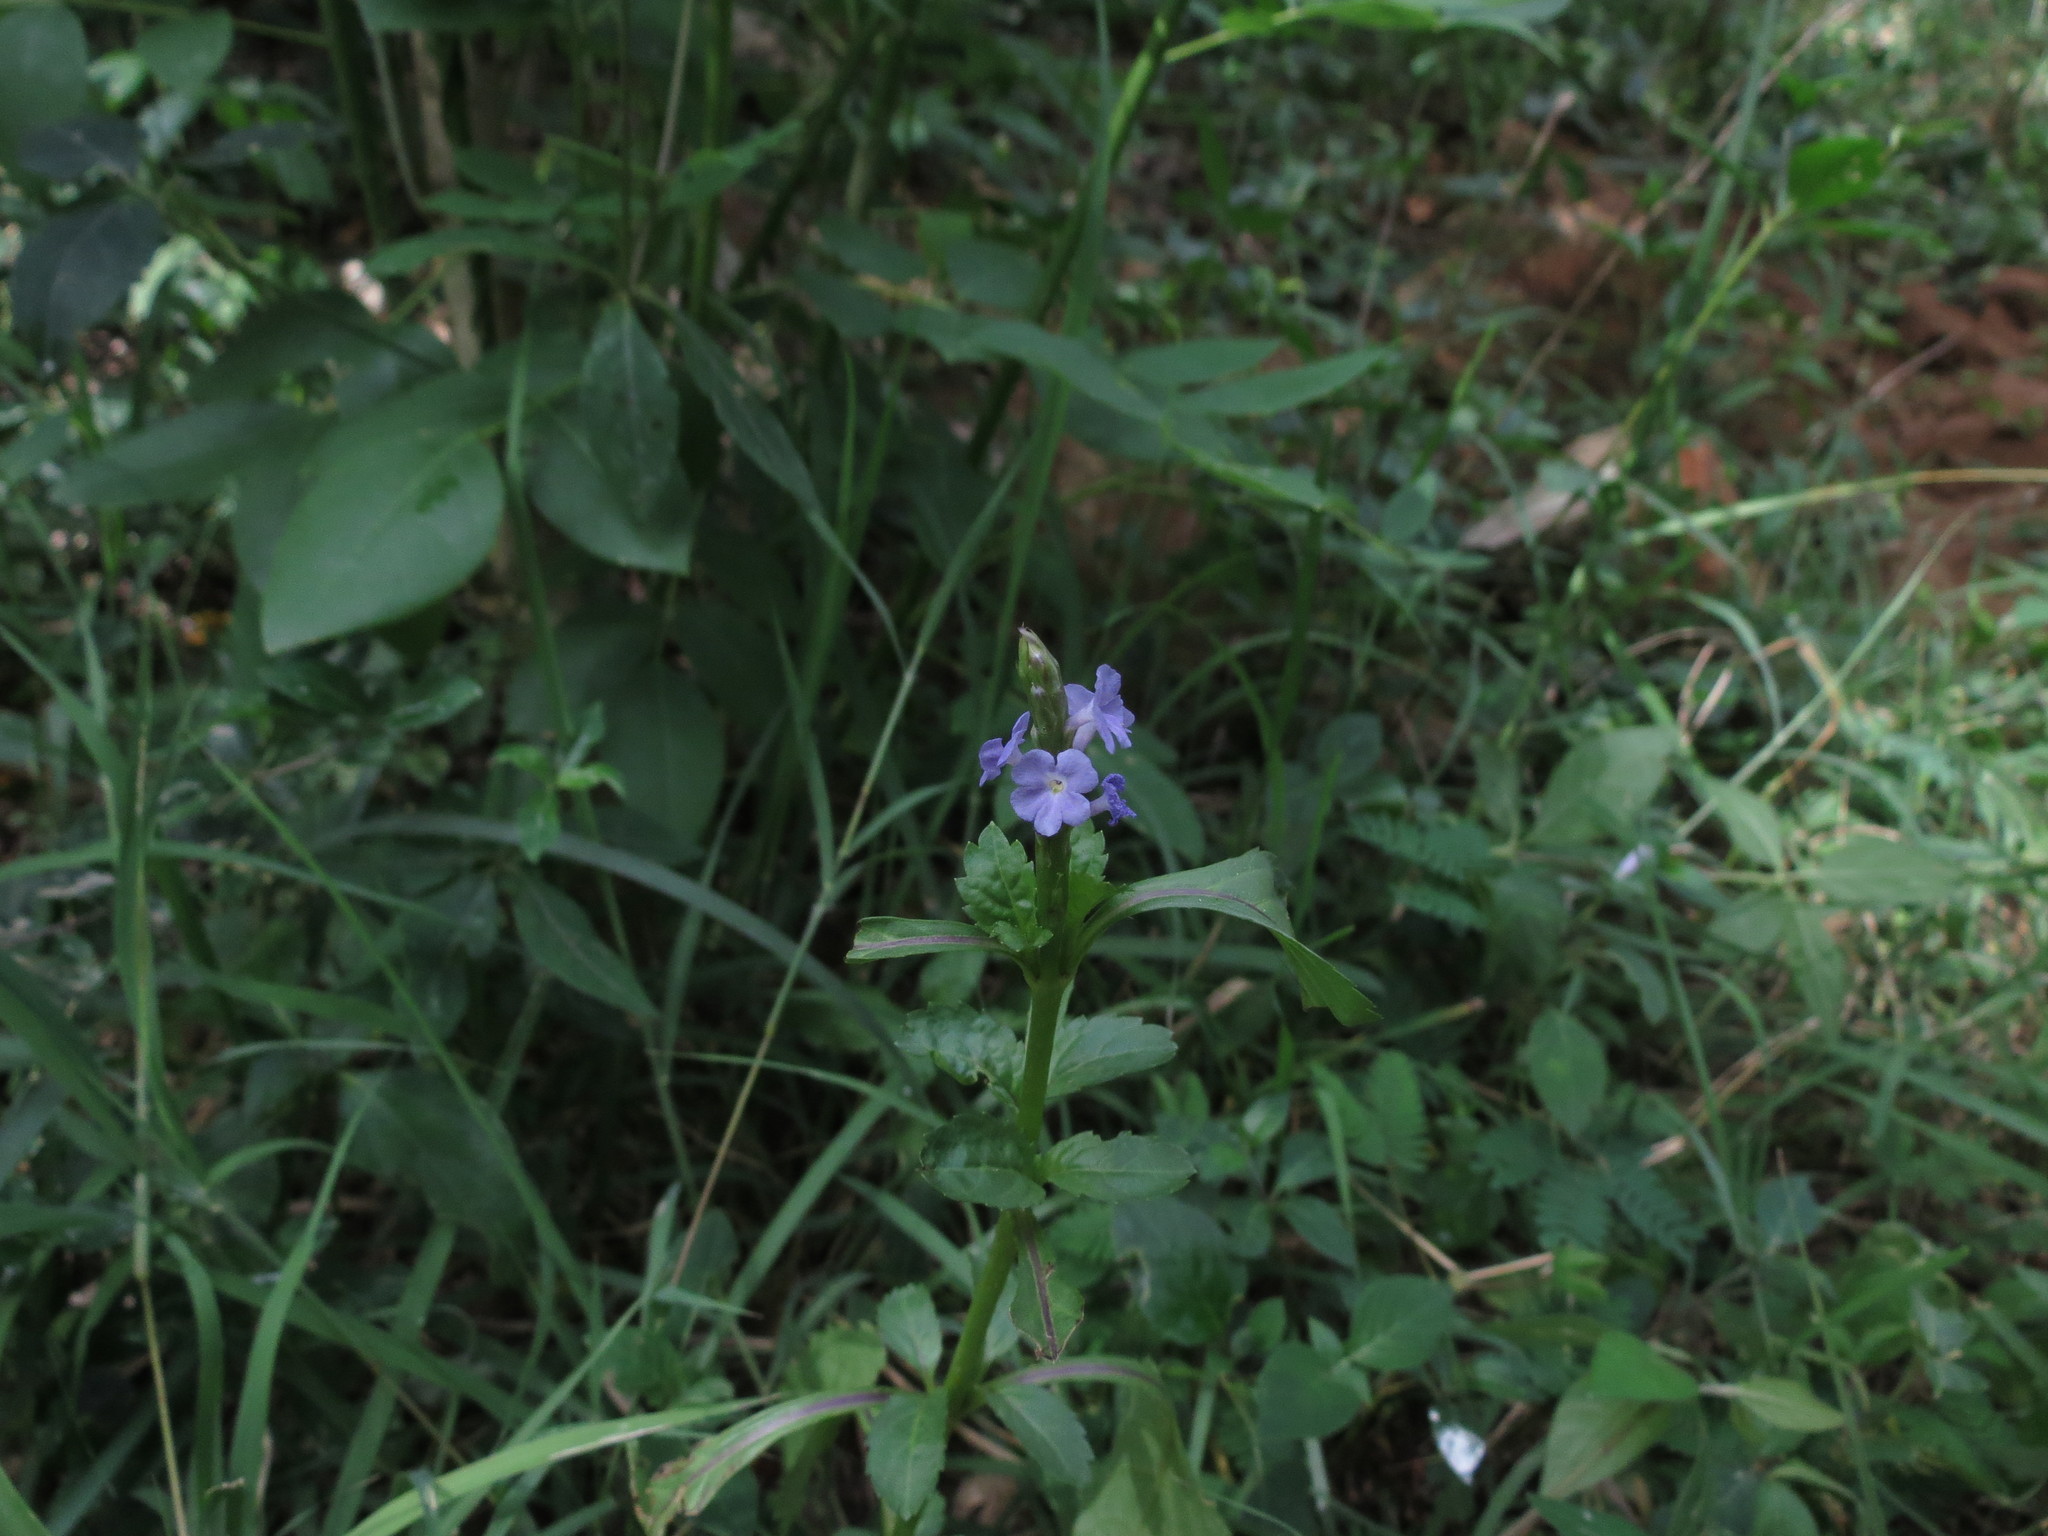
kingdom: Plantae
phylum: Tracheophyta
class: Magnoliopsida
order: Lamiales
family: Verbenaceae
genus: Stachytarpheta
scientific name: Stachytarpheta jamaicensis
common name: Light-blue snakeweed
